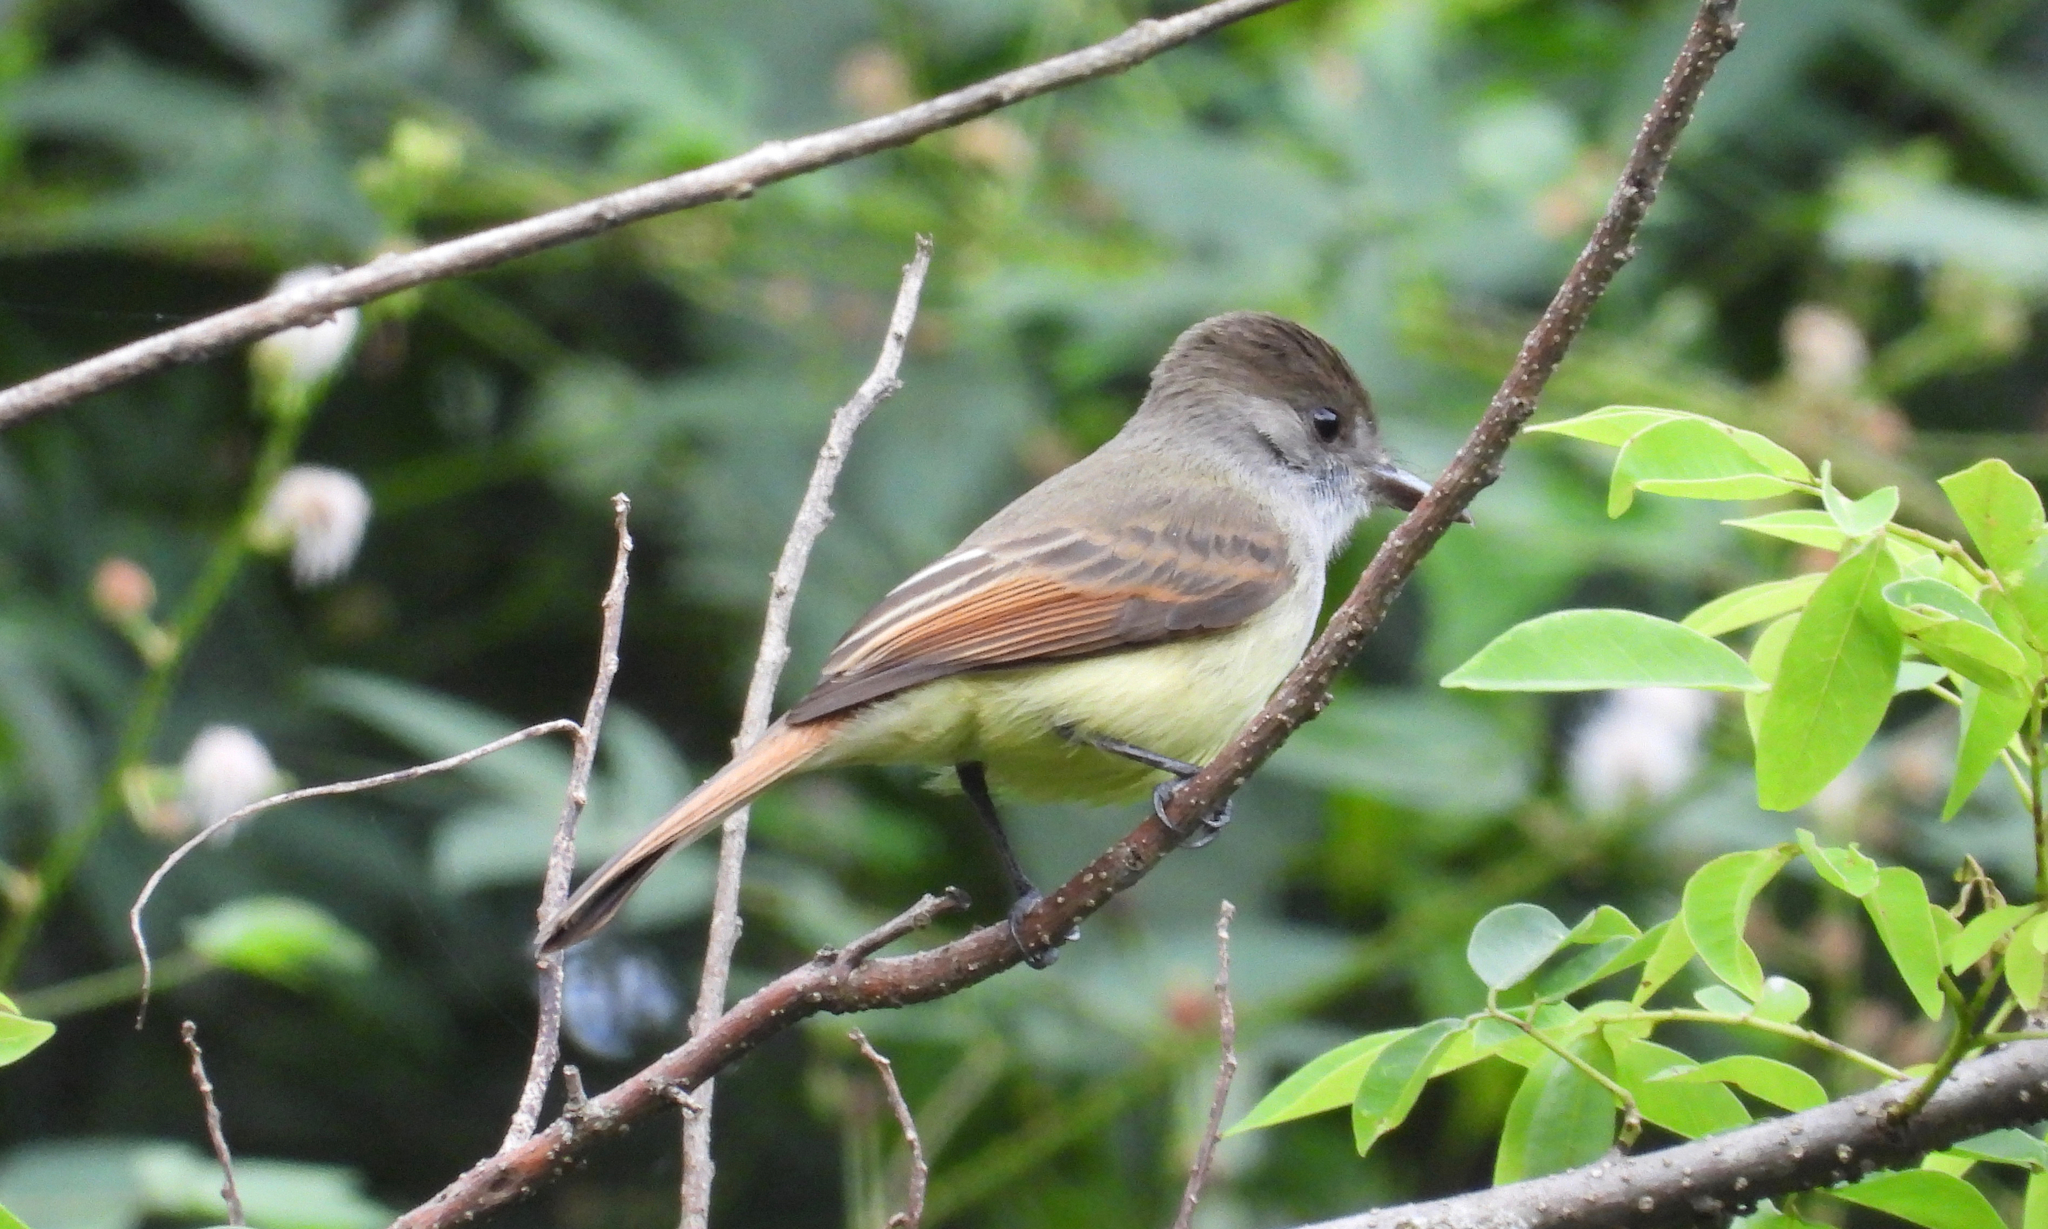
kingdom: Animalia
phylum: Chordata
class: Aves
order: Passeriformes
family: Tyrannidae
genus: Myiarchus
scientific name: Myiarchus tuberculifer
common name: Dusky-capped flycatcher
